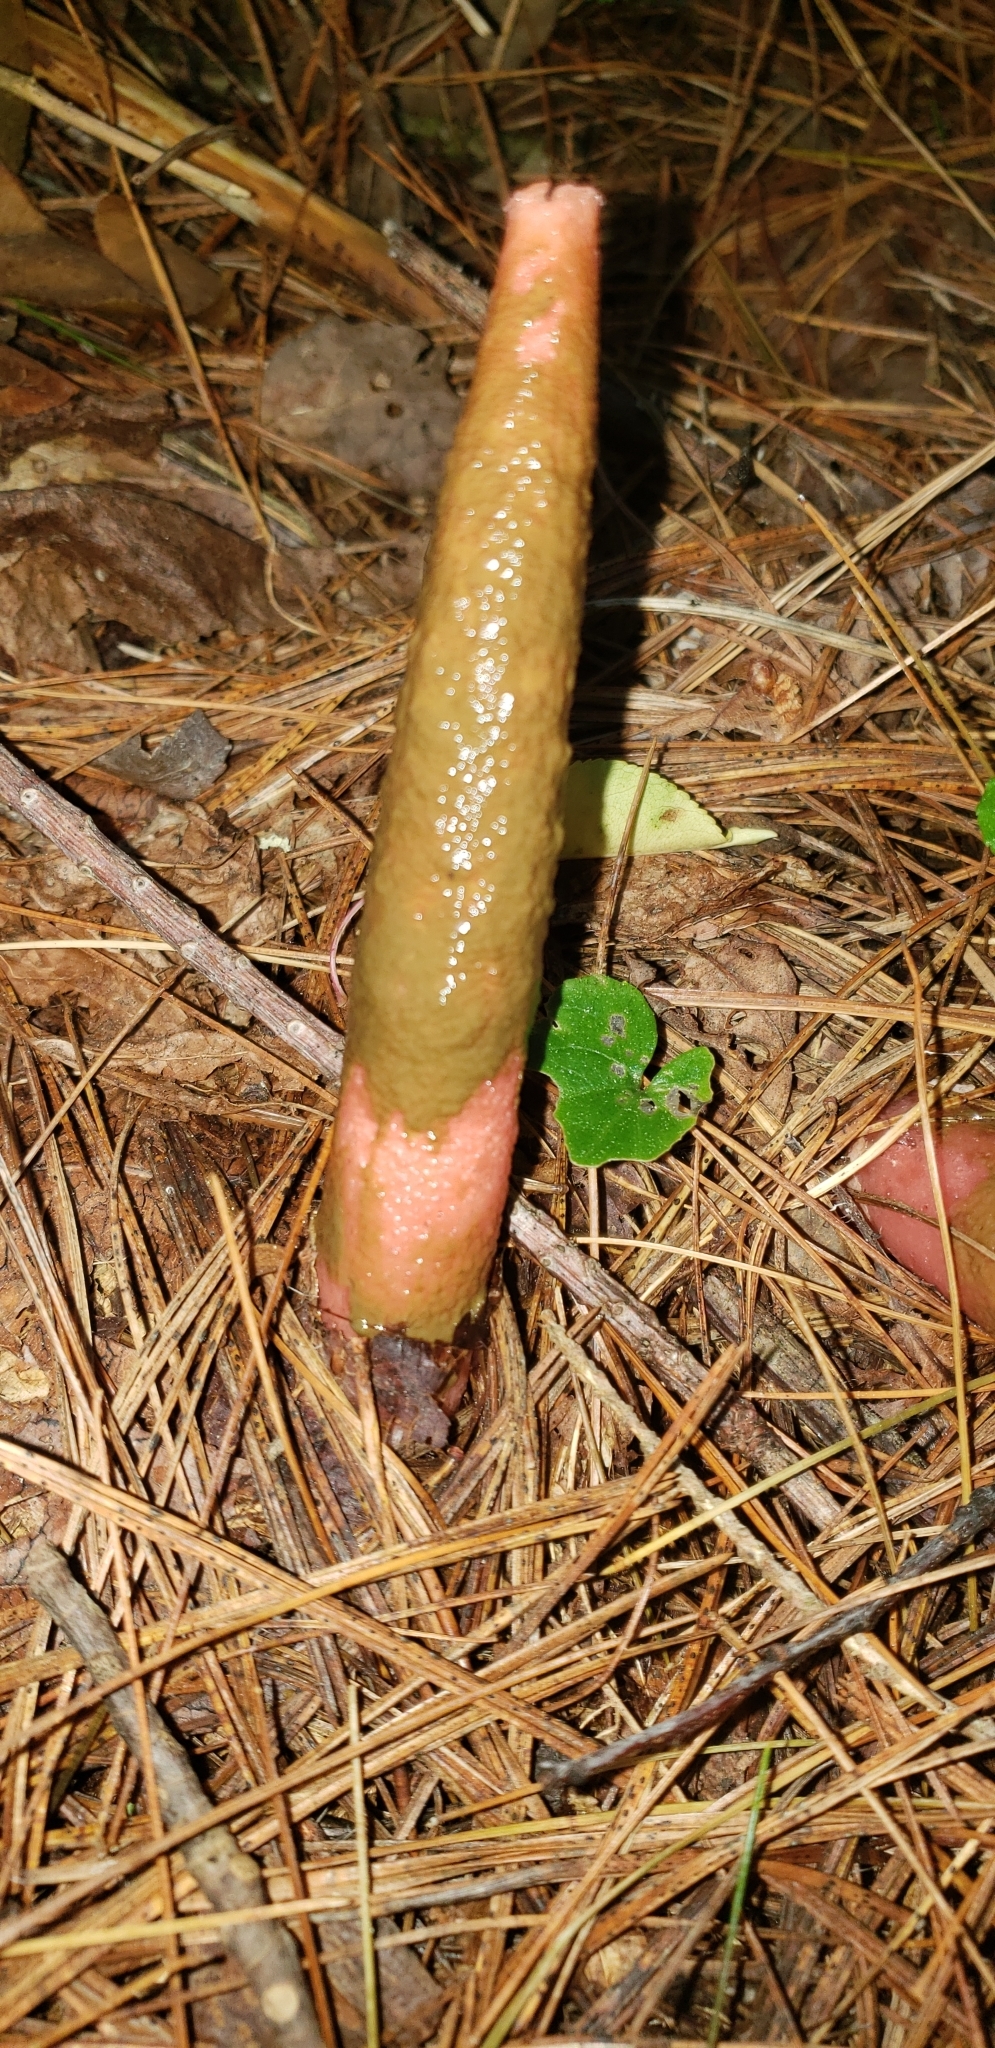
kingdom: Fungi
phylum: Basidiomycota
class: Agaricomycetes
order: Phallales
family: Phallaceae
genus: Mutinus
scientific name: Mutinus elegans
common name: Devil's dipstick
